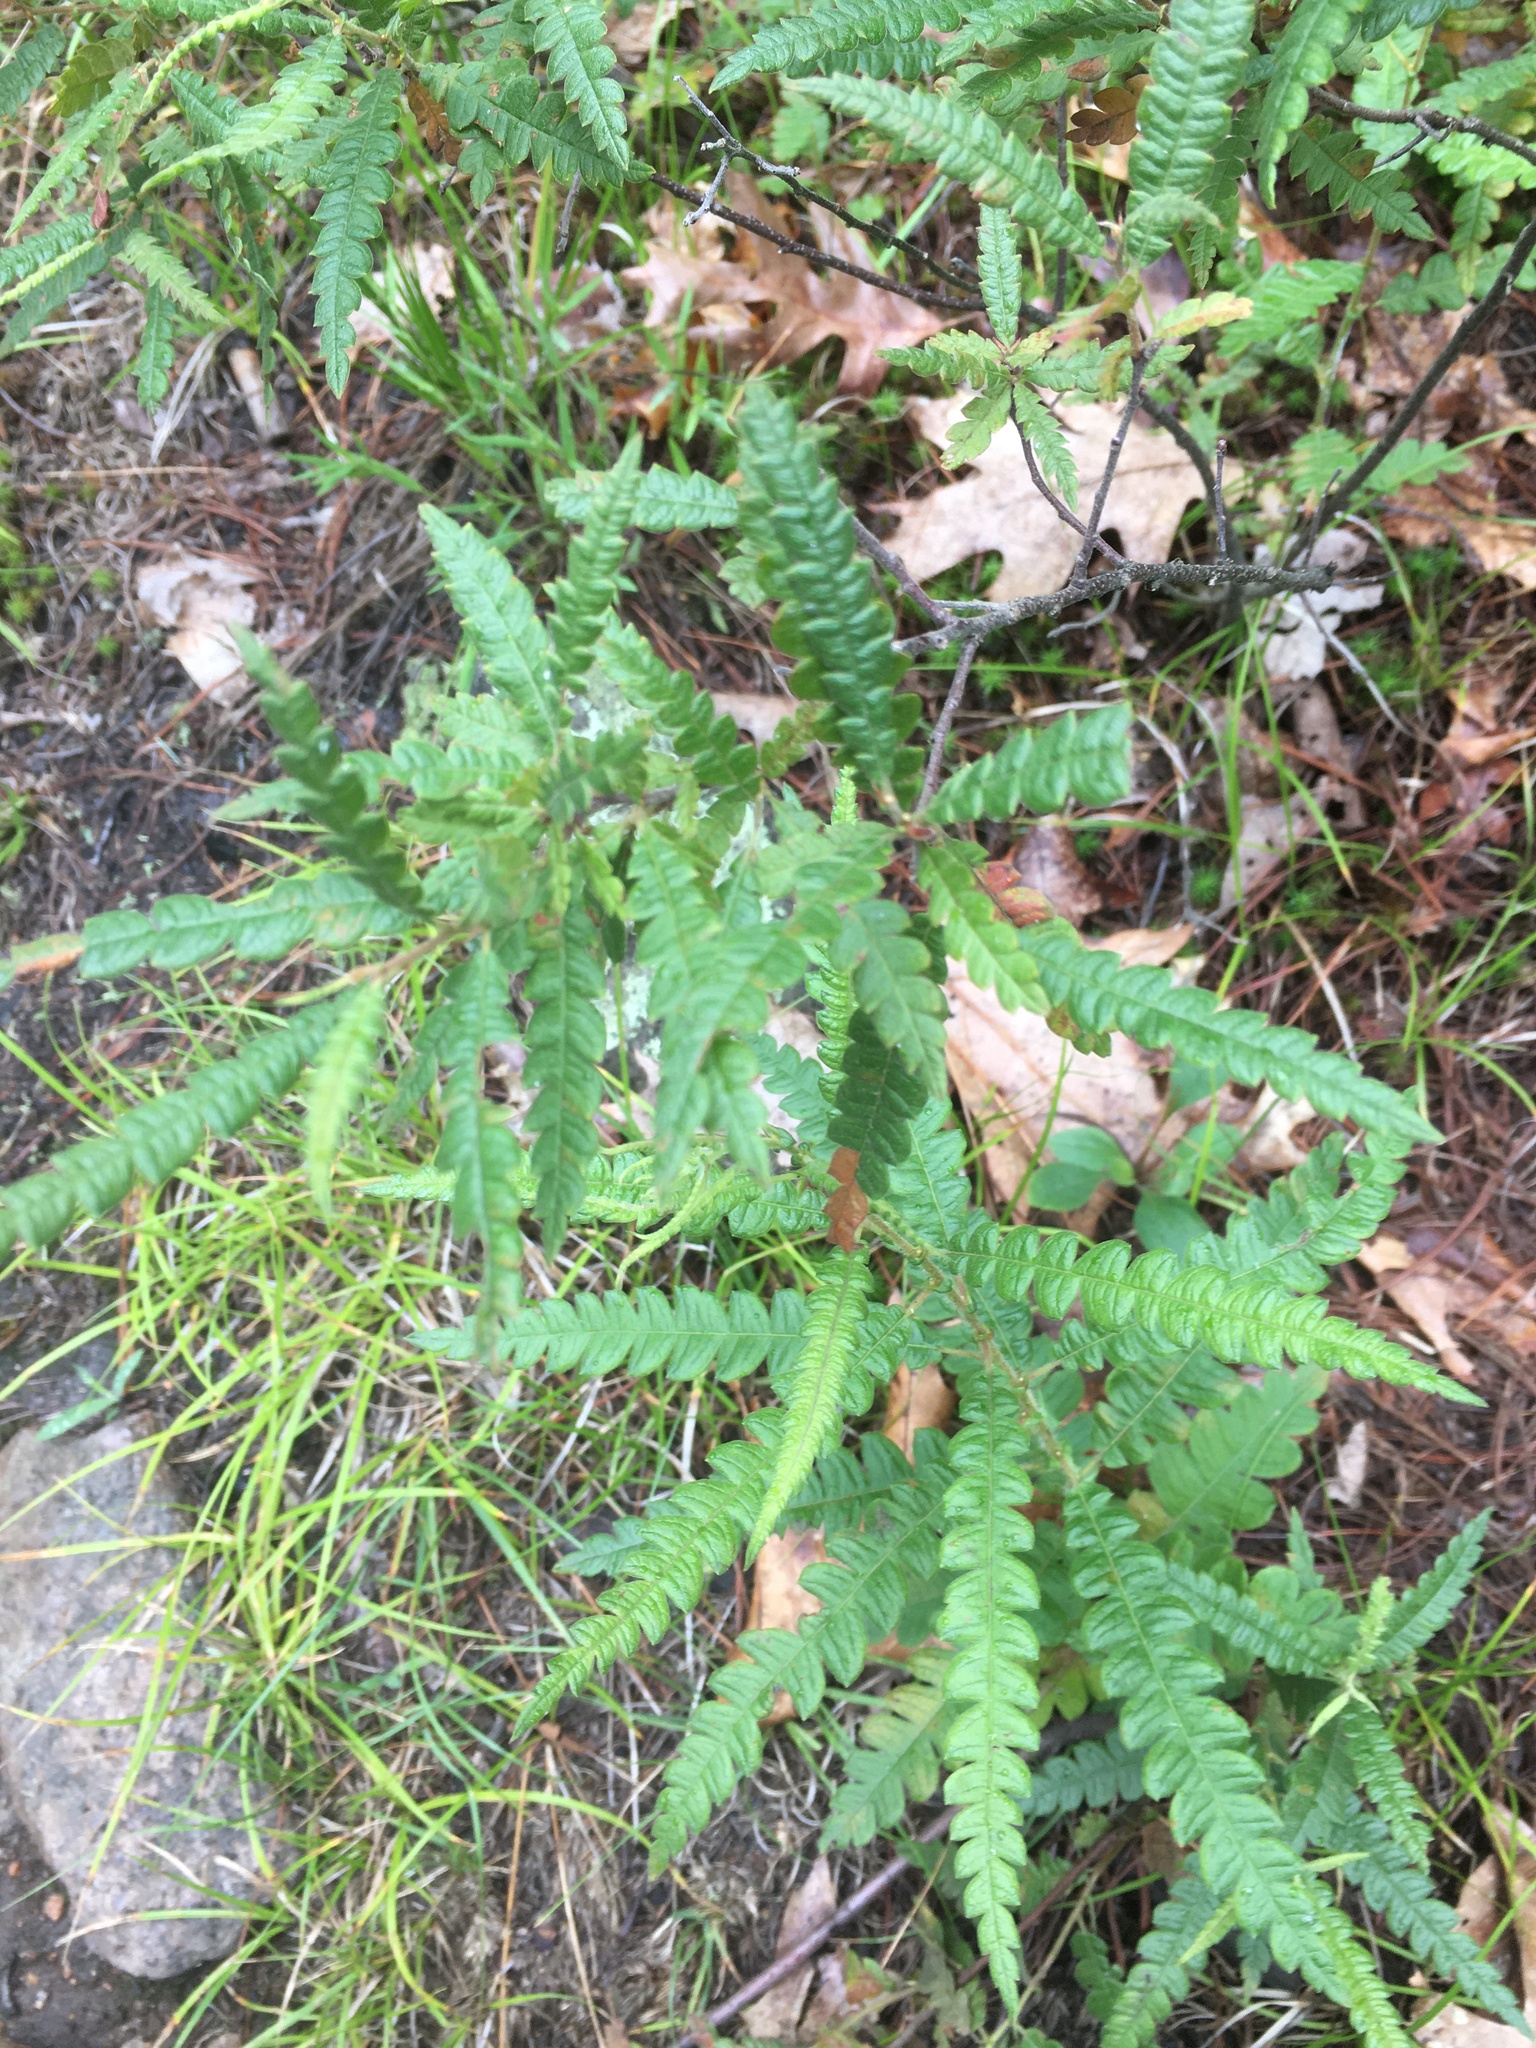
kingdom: Plantae
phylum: Tracheophyta
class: Magnoliopsida
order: Fagales
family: Myricaceae
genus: Comptonia
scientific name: Comptonia peregrina
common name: Sweet-fern
